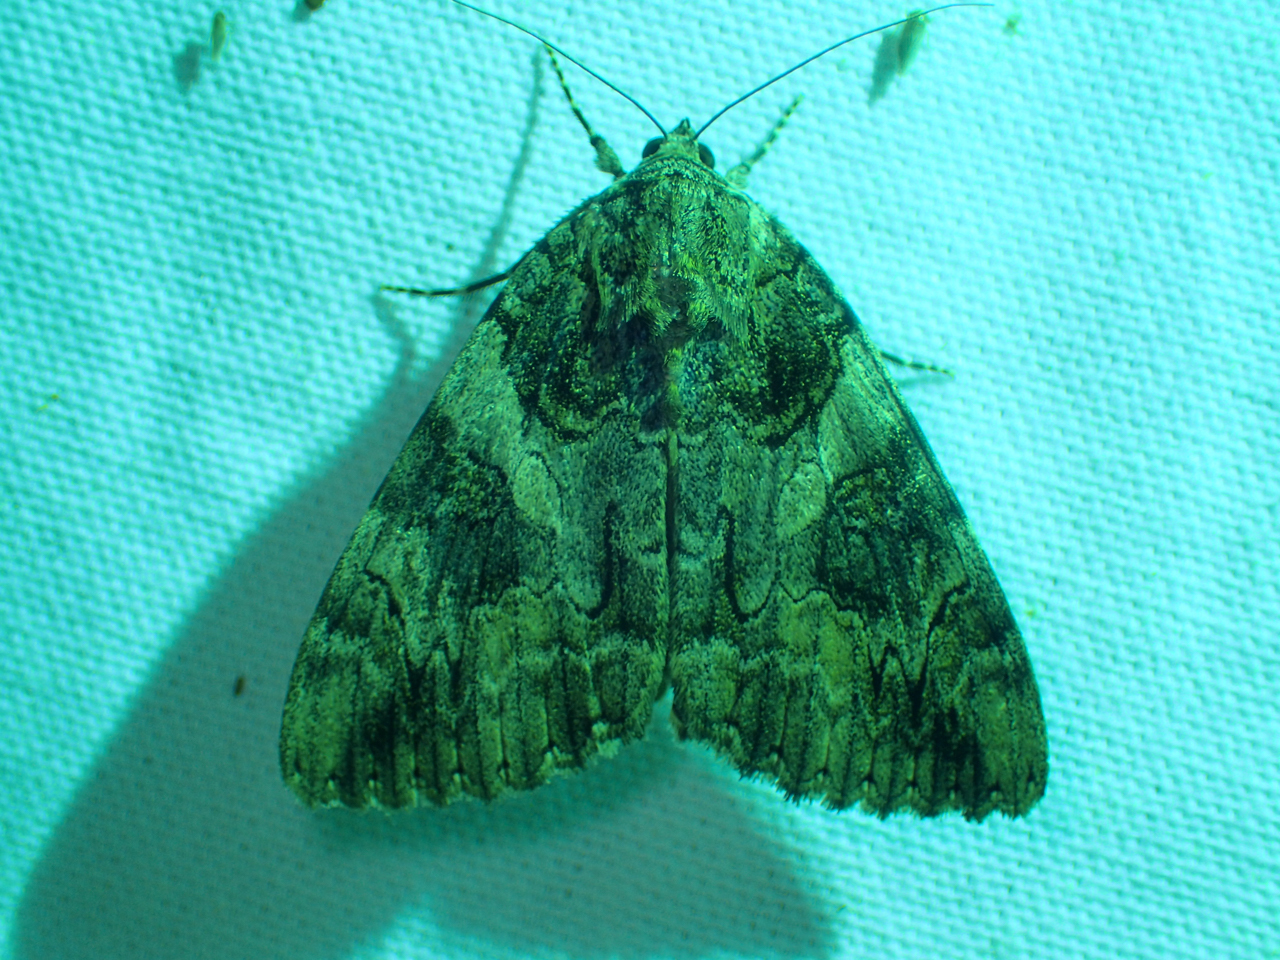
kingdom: Animalia
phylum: Arthropoda
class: Insecta
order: Lepidoptera
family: Erebidae
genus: Catocala
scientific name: Catocala piatrix
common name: The penitent underwing
